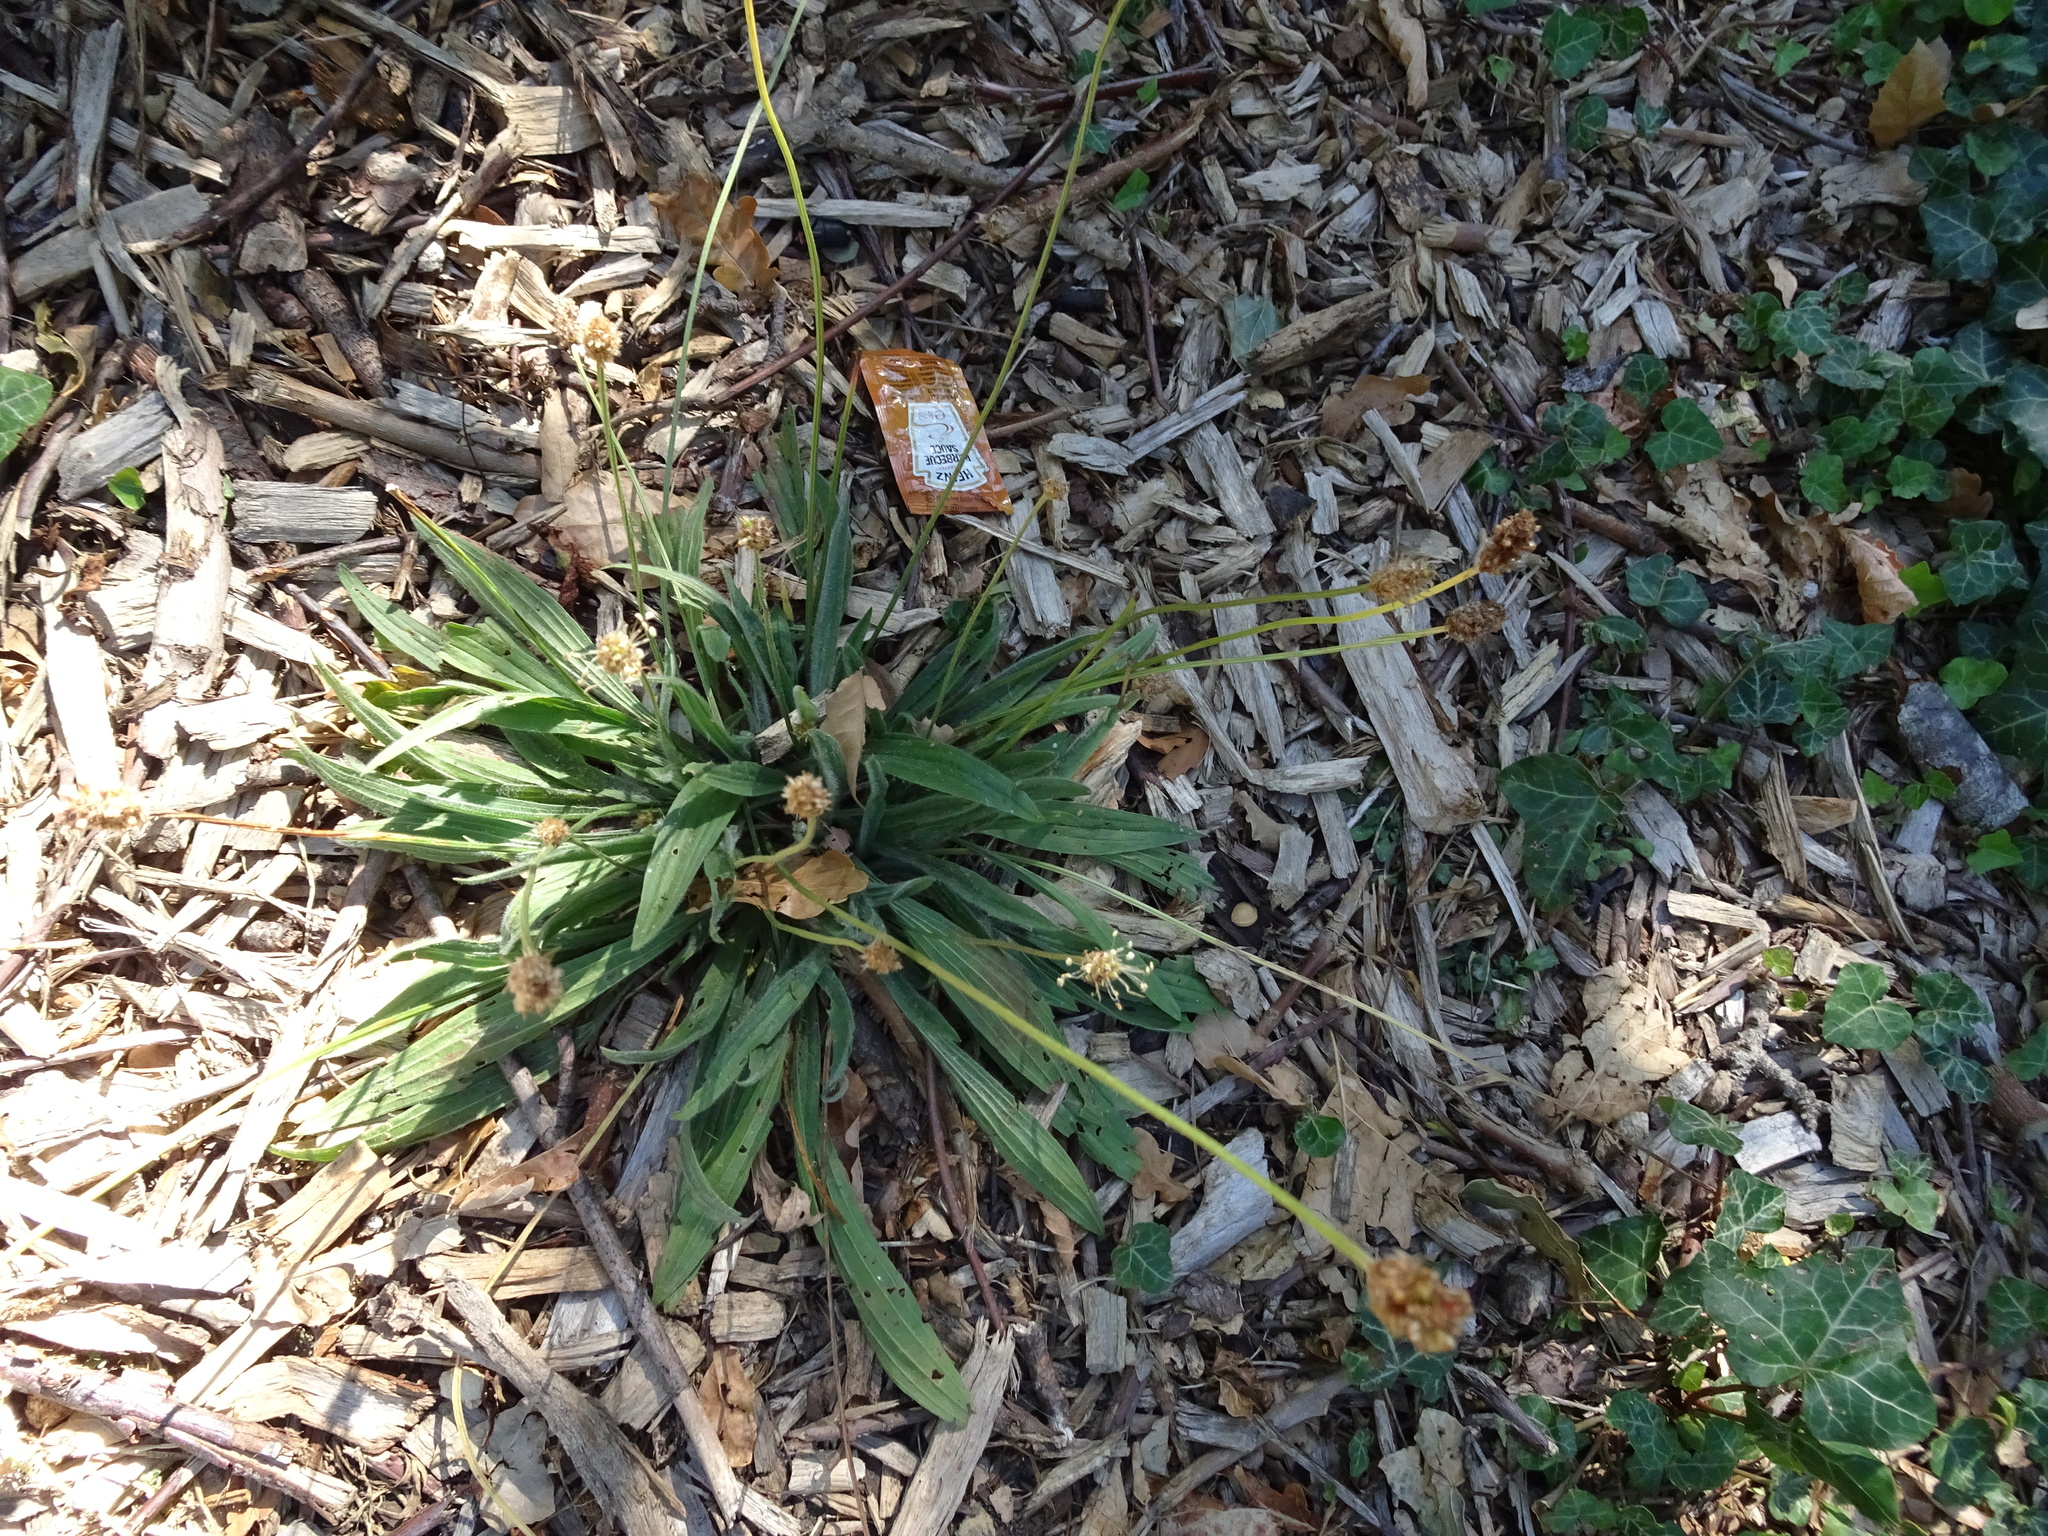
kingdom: Plantae
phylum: Tracheophyta
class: Magnoliopsida
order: Lamiales
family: Plantaginaceae
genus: Plantago
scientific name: Plantago lanceolata
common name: Ribwort plantain
